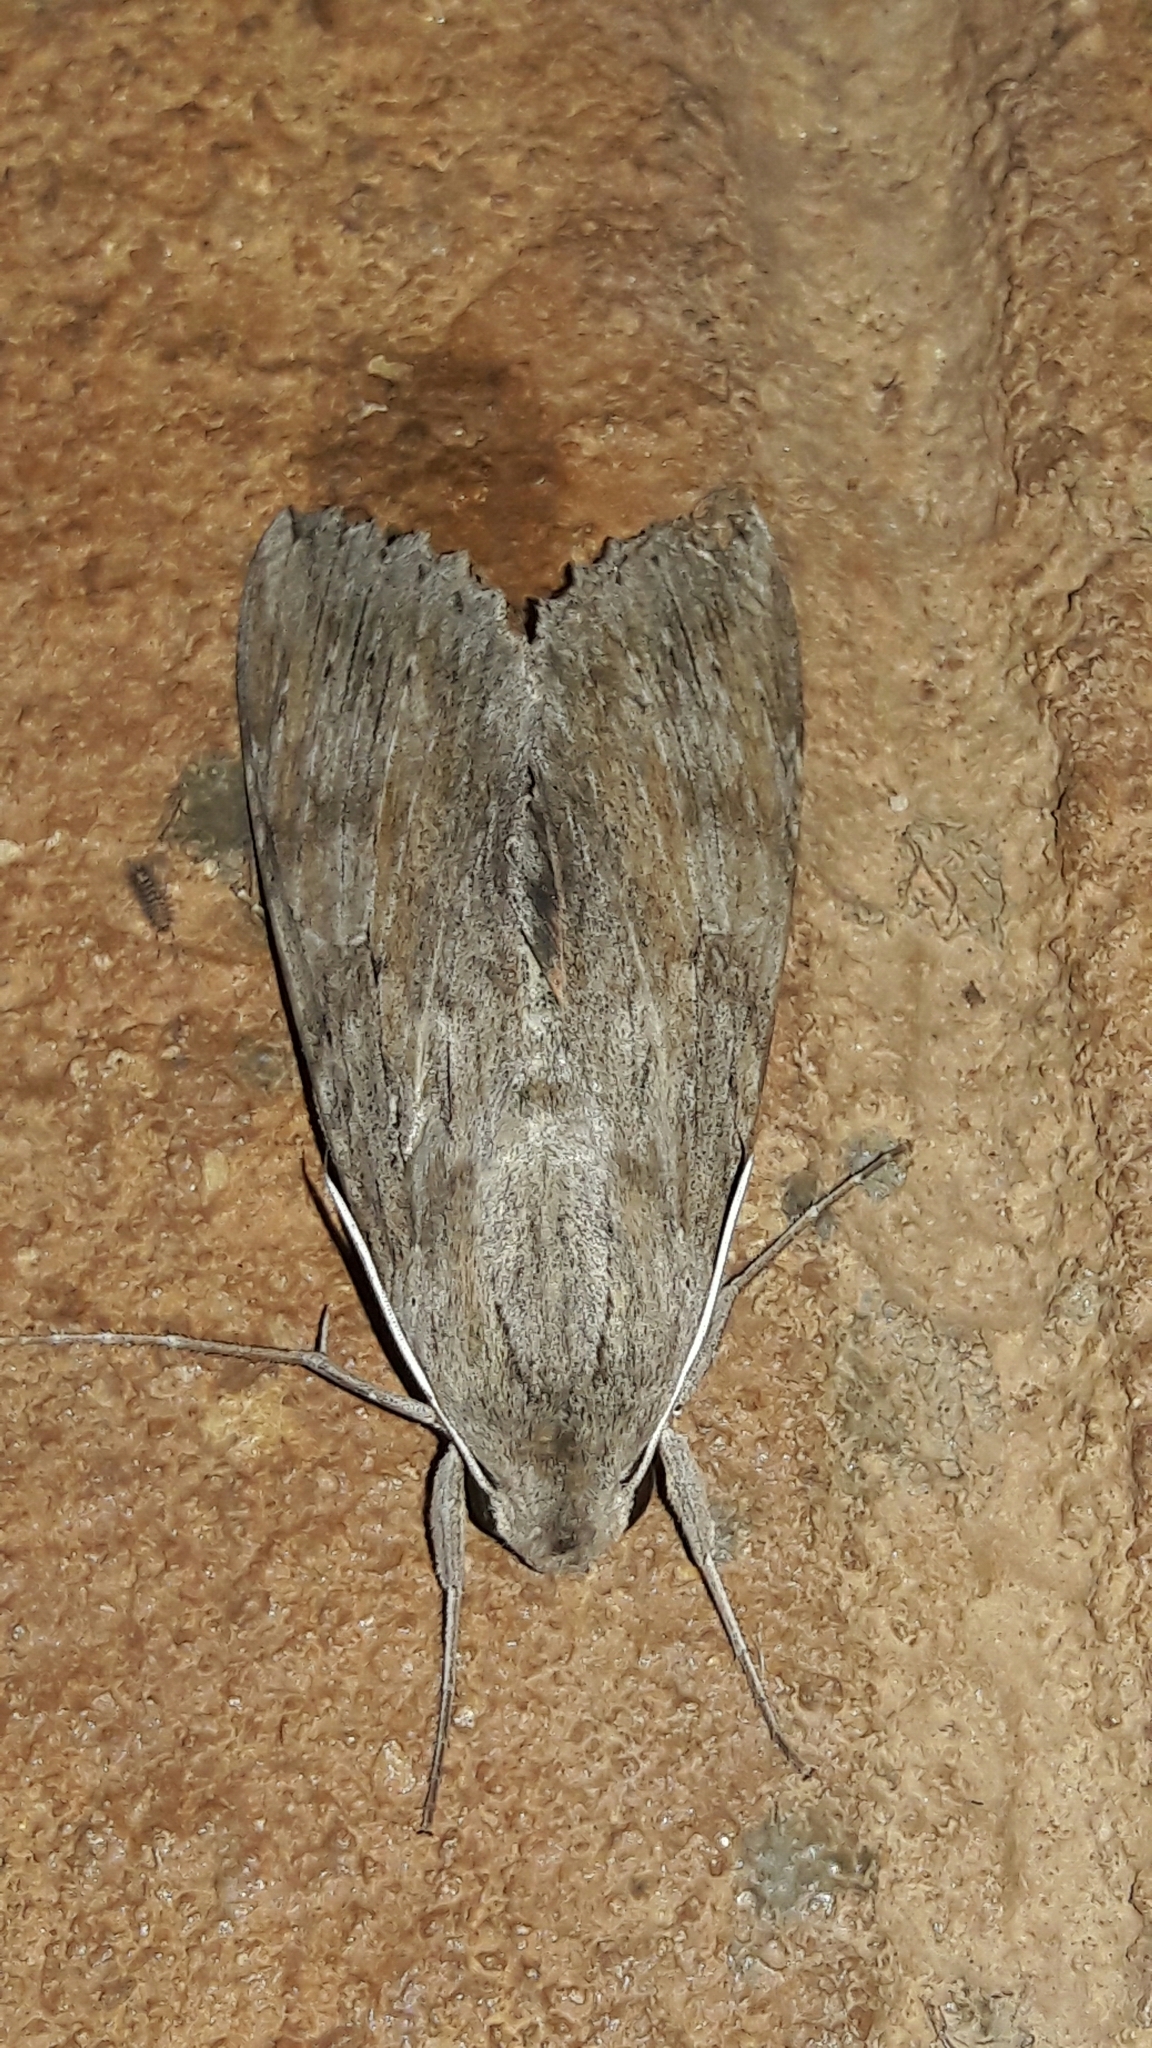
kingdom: Animalia
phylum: Arthropoda
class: Insecta
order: Lepidoptera
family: Sphingidae
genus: Erinnyis
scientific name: Erinnyis ello
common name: Ello sphinx
